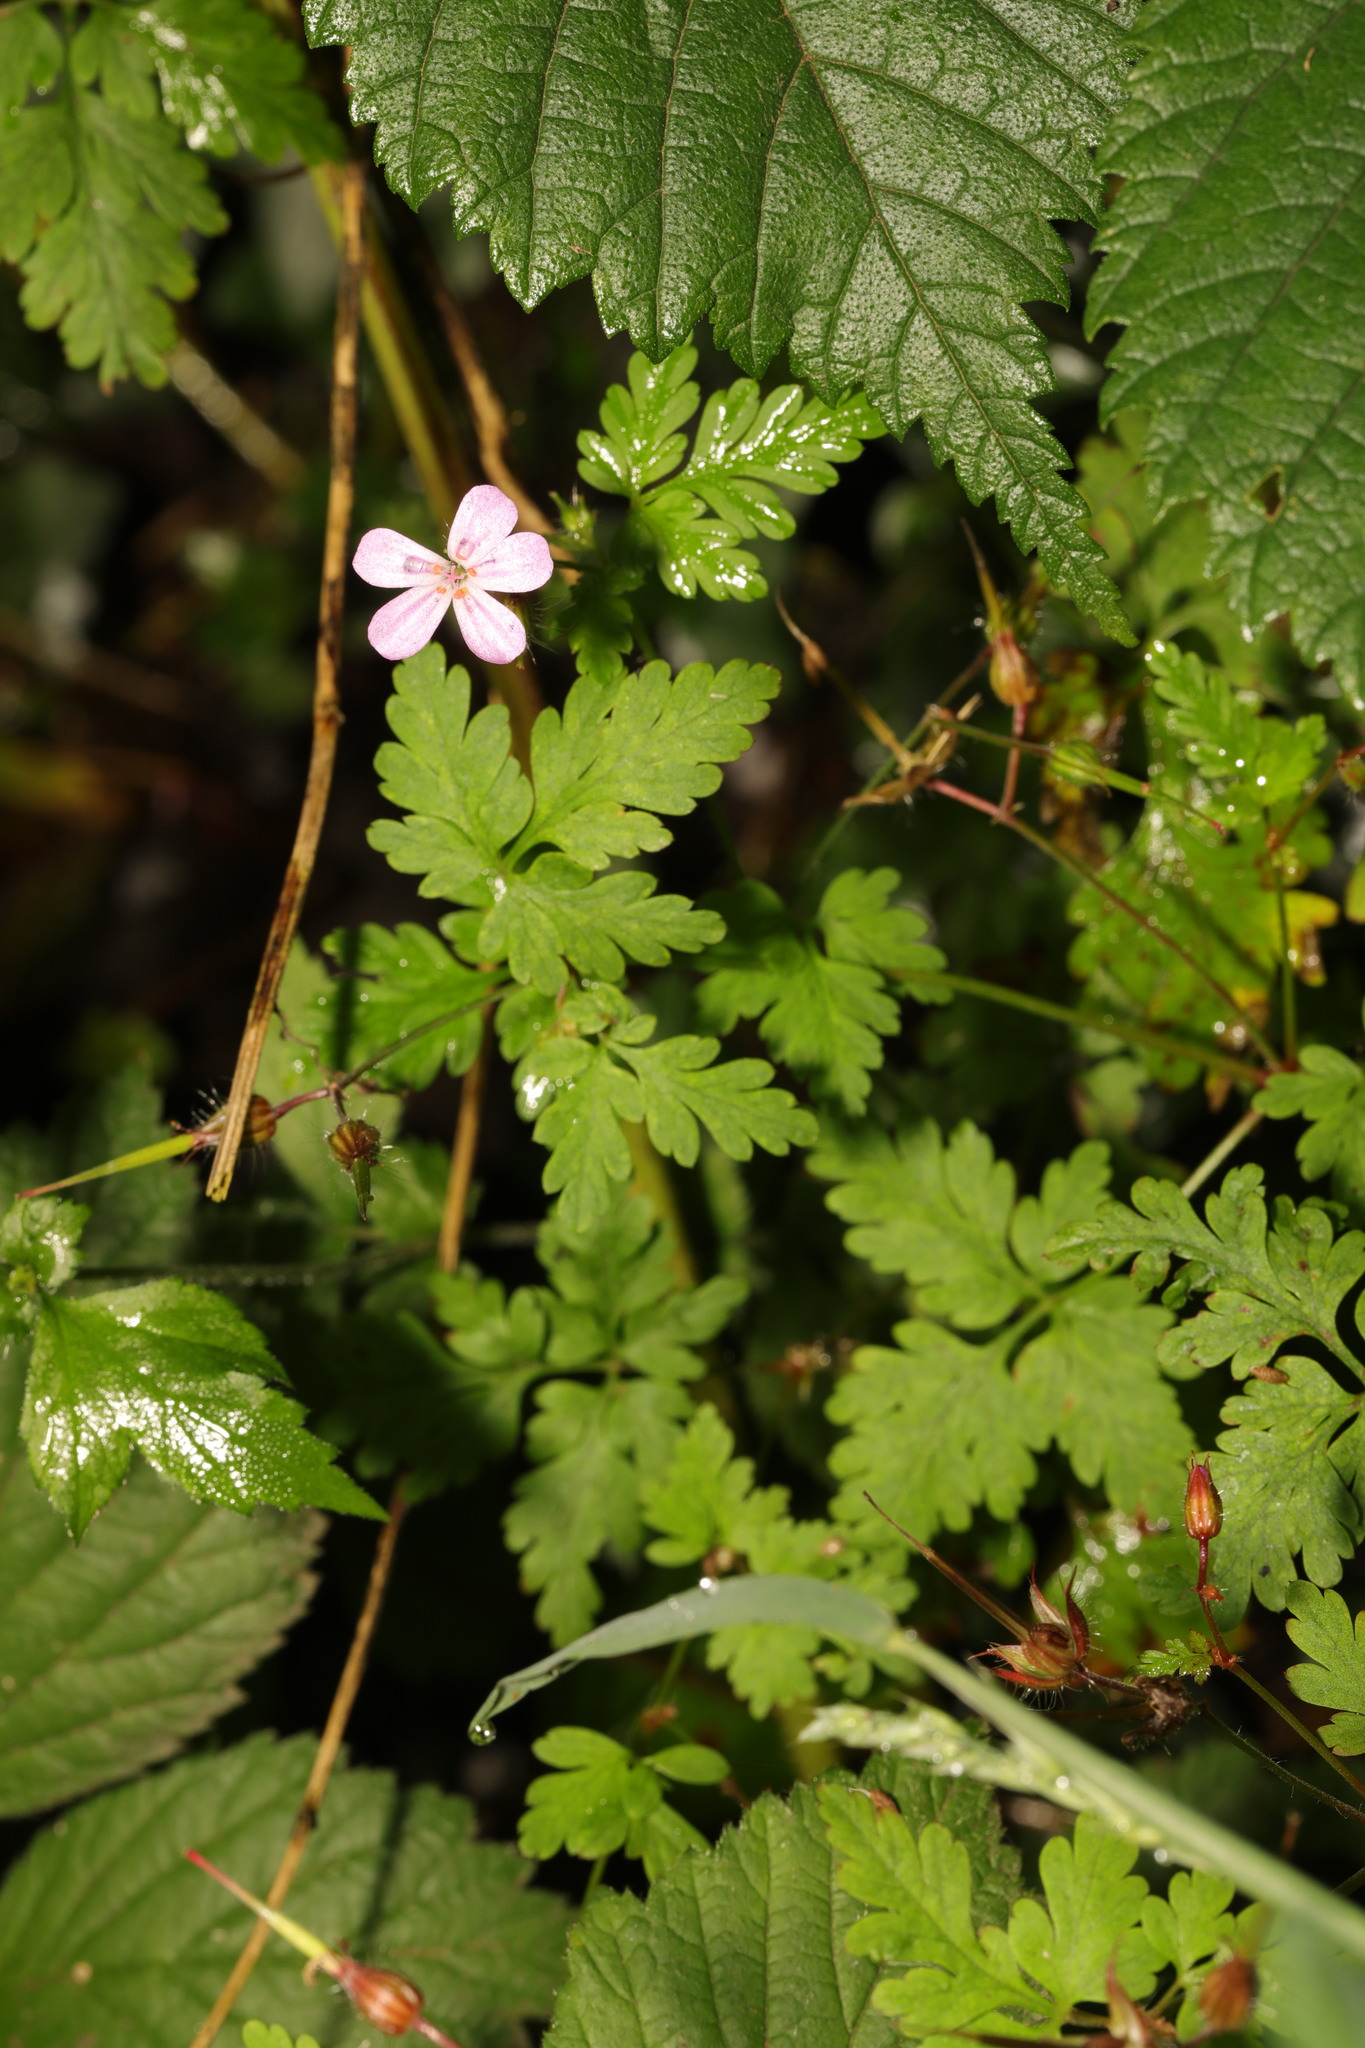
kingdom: Plantae
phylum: Tracheophyta
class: Magnoliopsida
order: Geraniales
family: Geraniaceae
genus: Geranium
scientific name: Geranium robertianum
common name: Herb-robert
